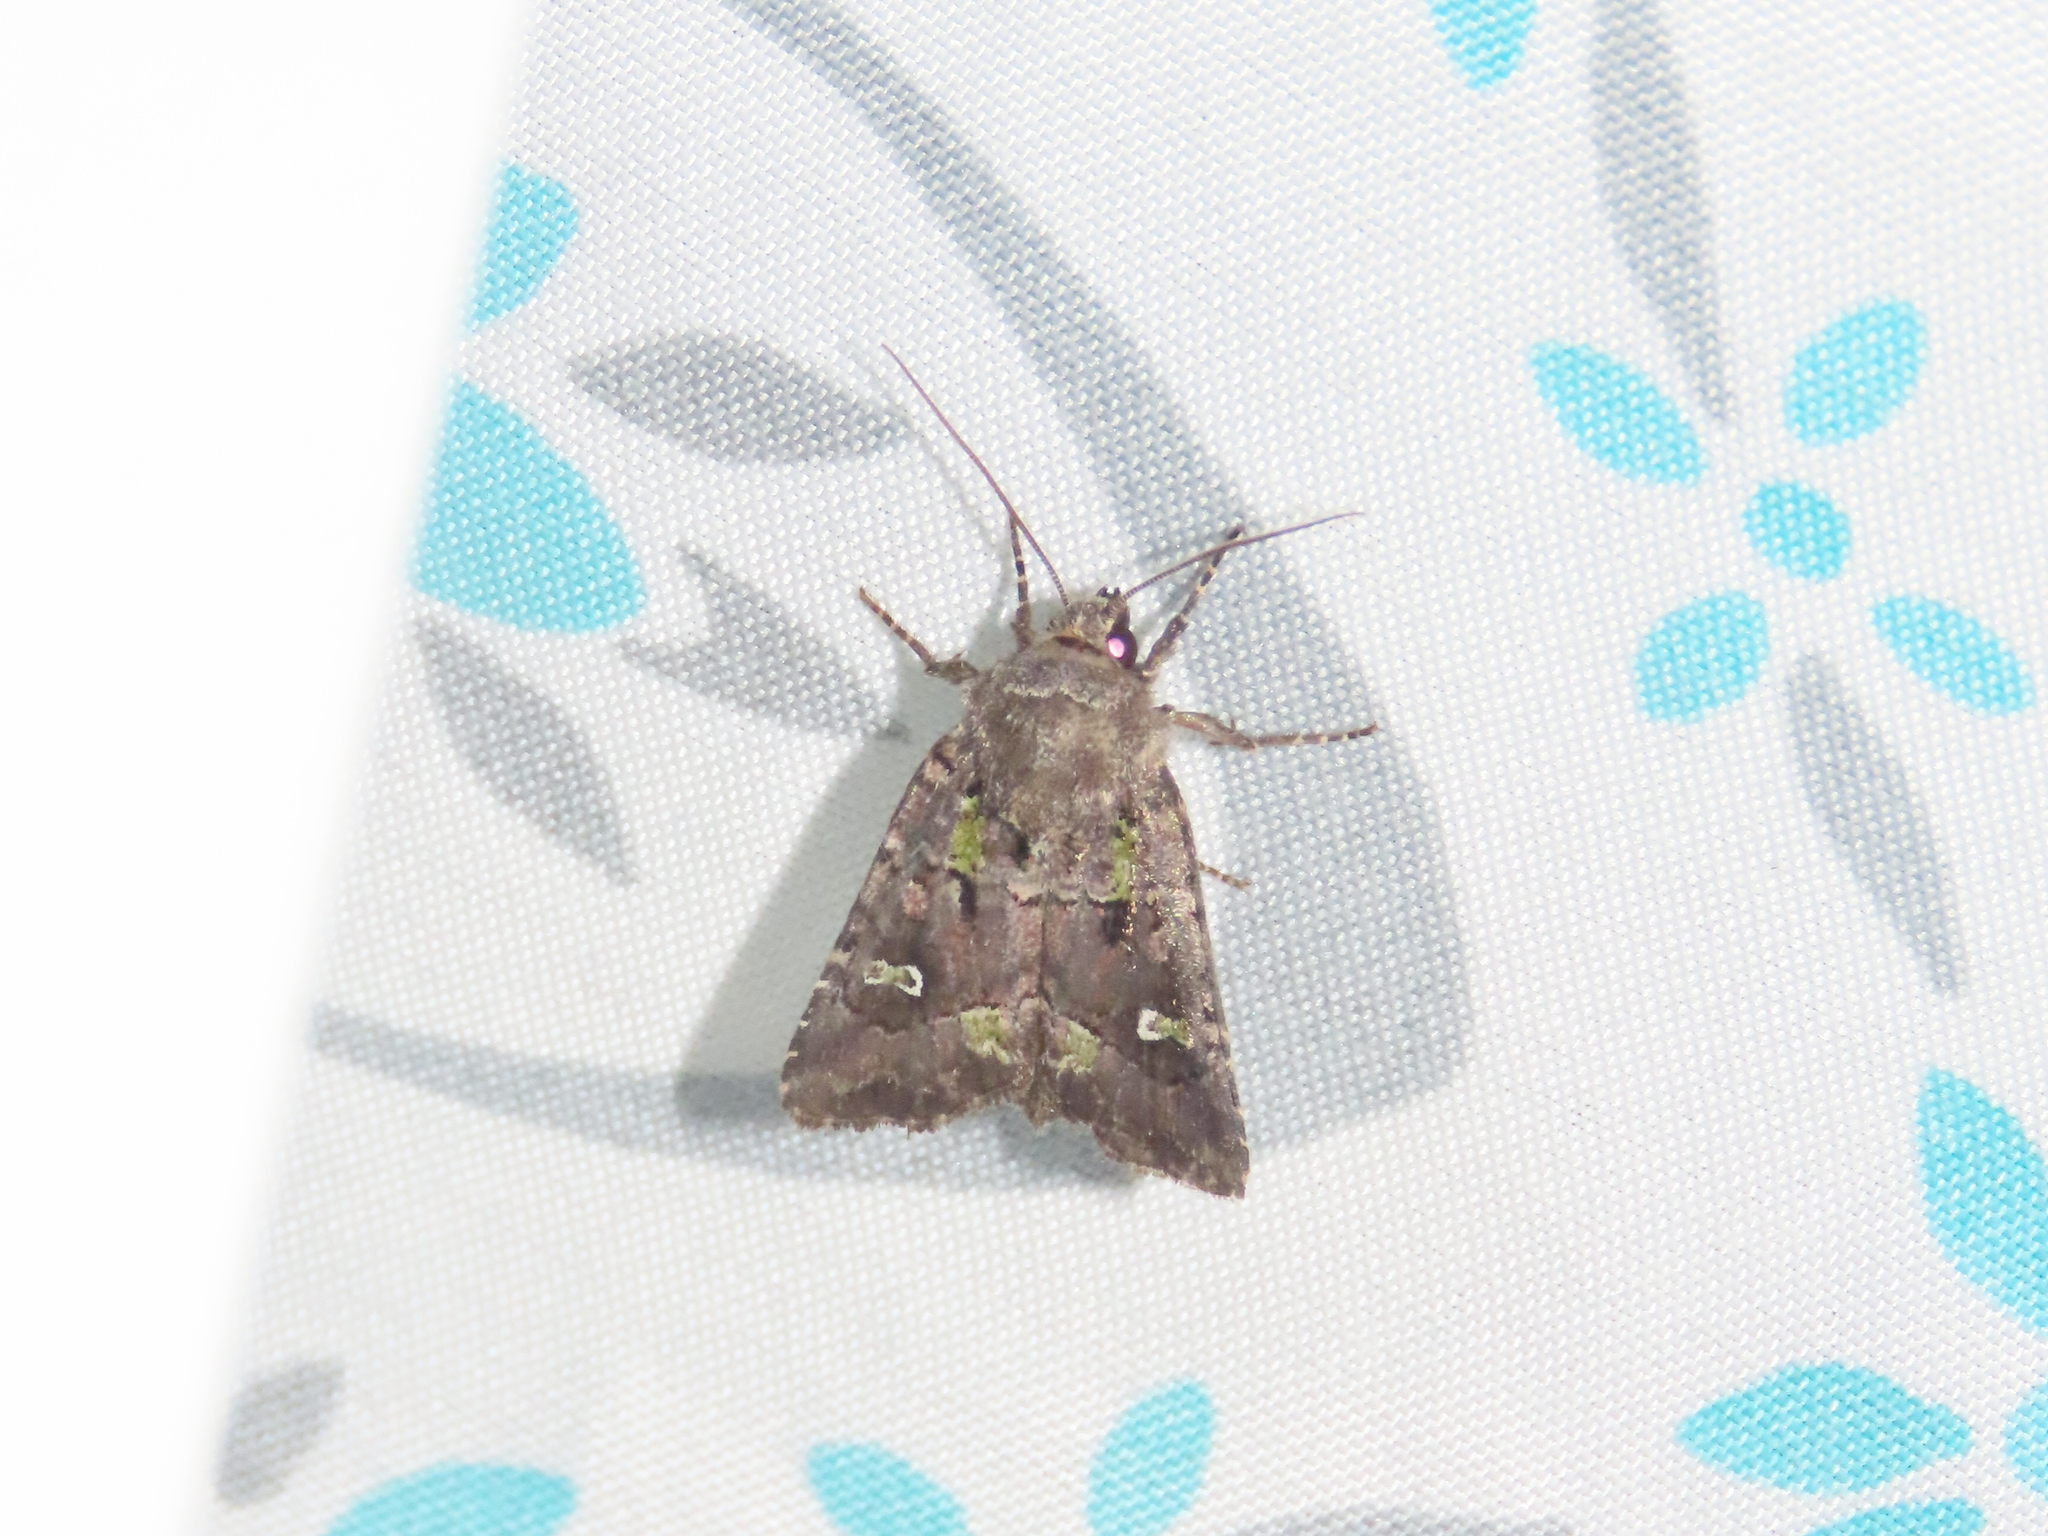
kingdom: Animalia
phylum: Arthropoda
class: Insecta
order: Lepidoptera
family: Noctuidae
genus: Lacinipolia
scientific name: Lacinipolia renigera
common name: Kidney-spotted minor
